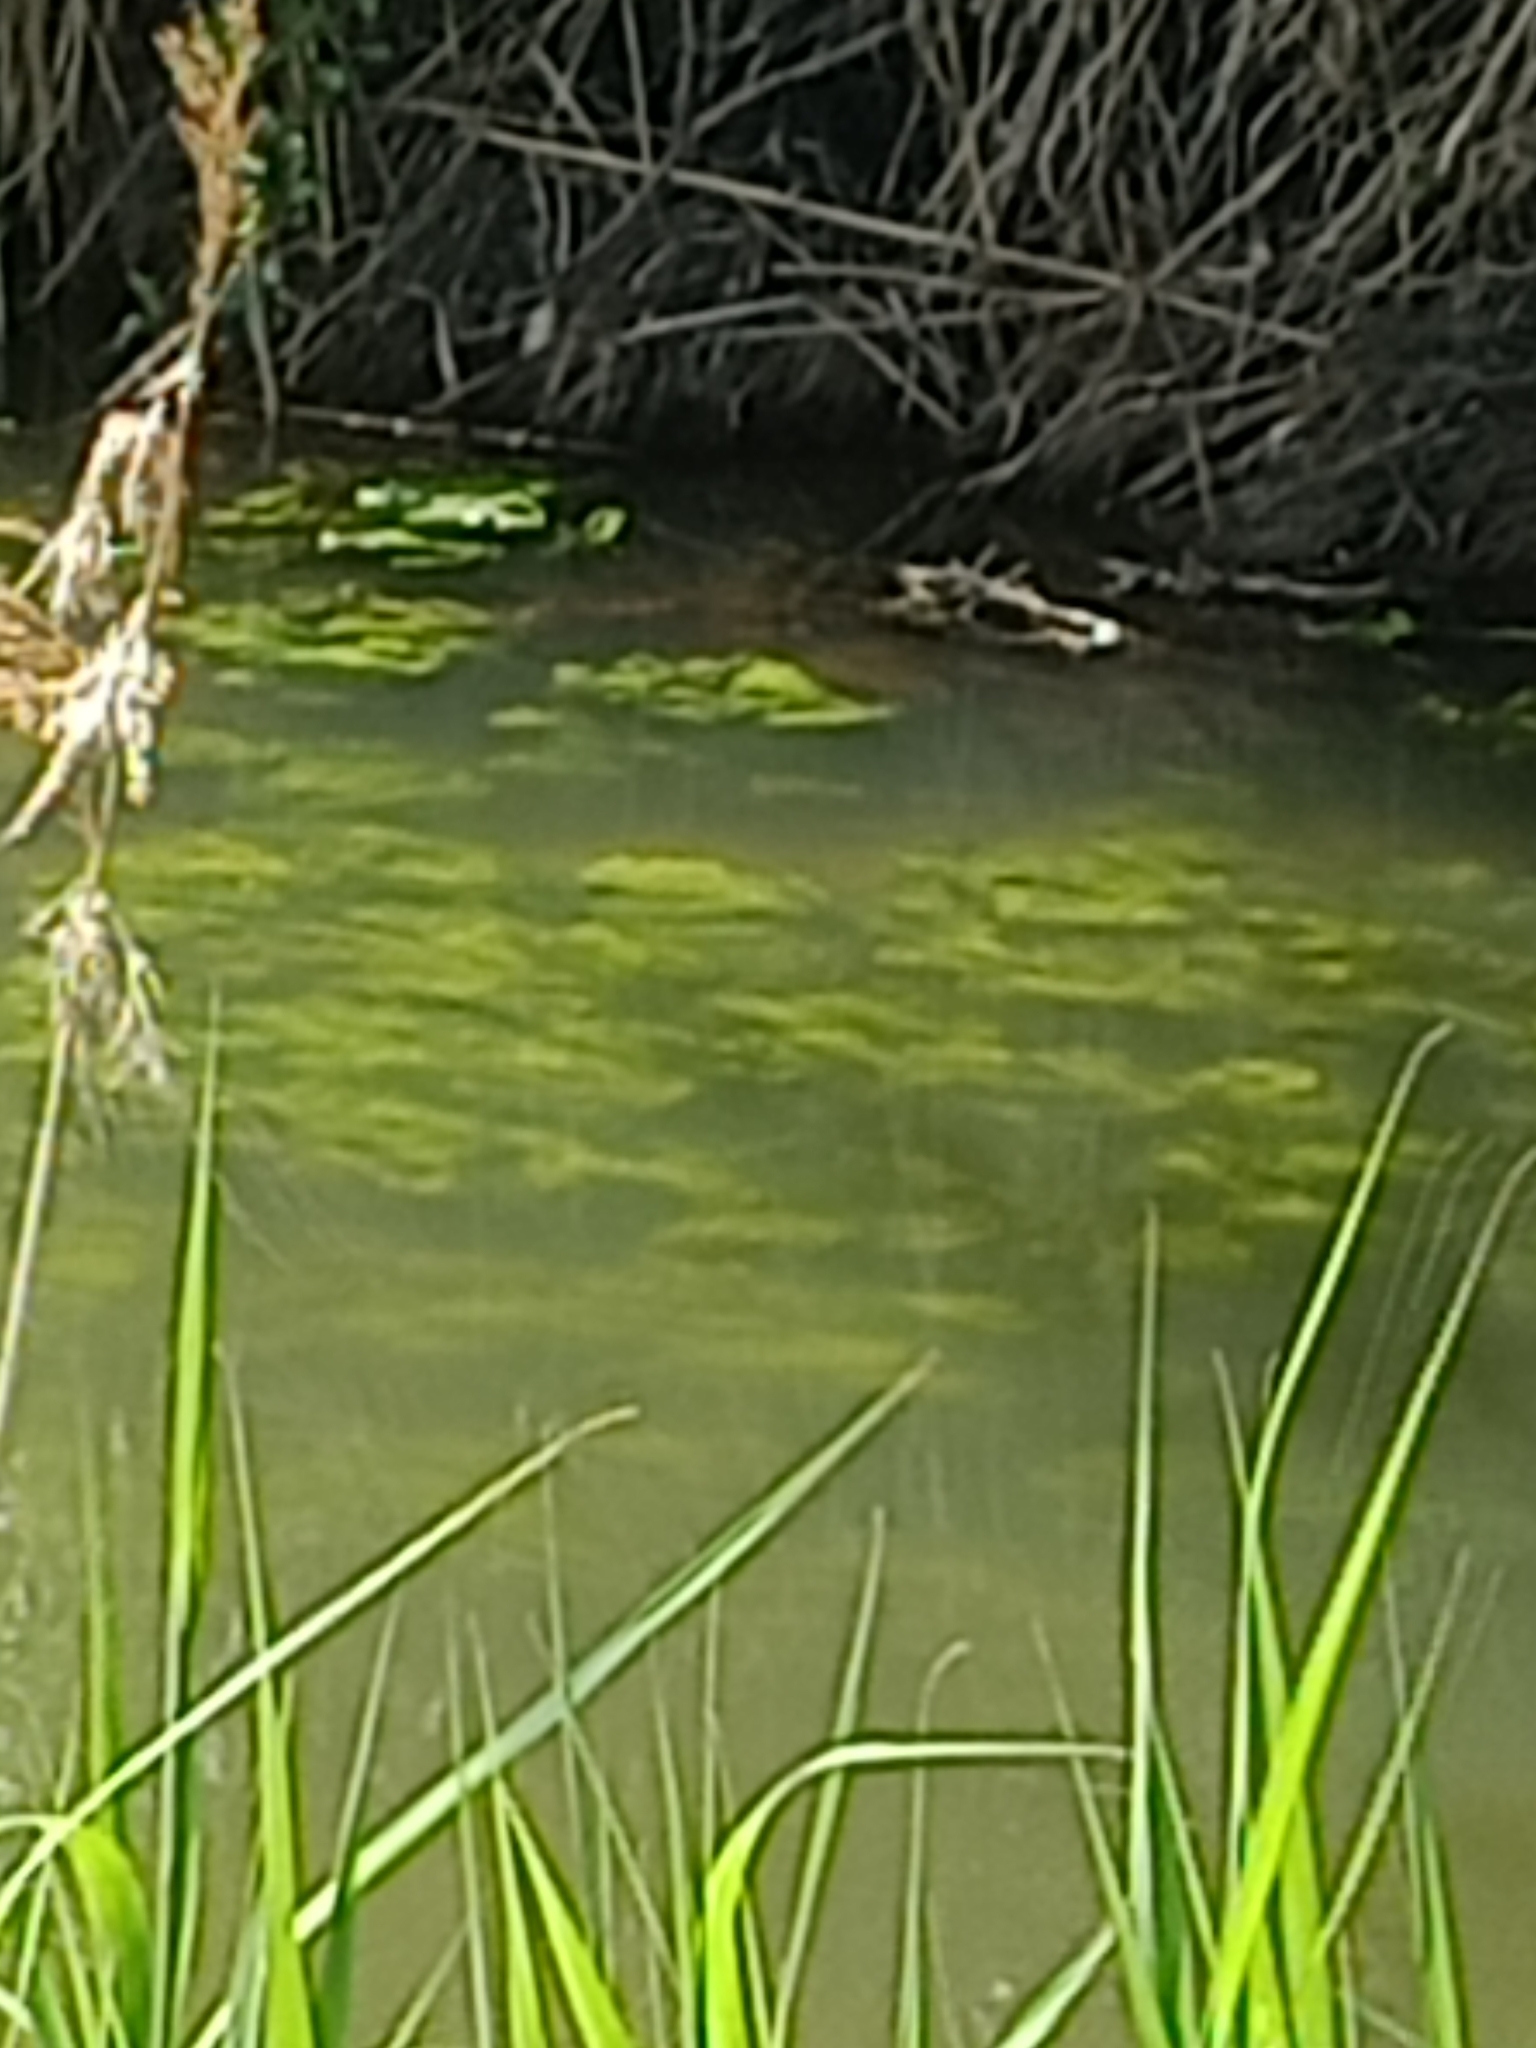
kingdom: Plantae
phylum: Tracheophyta
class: Magnoliopsida
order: Nymphaeales
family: Nymphaeaceae
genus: Nuphar
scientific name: Nuphar lutea
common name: Yellow water-lily
